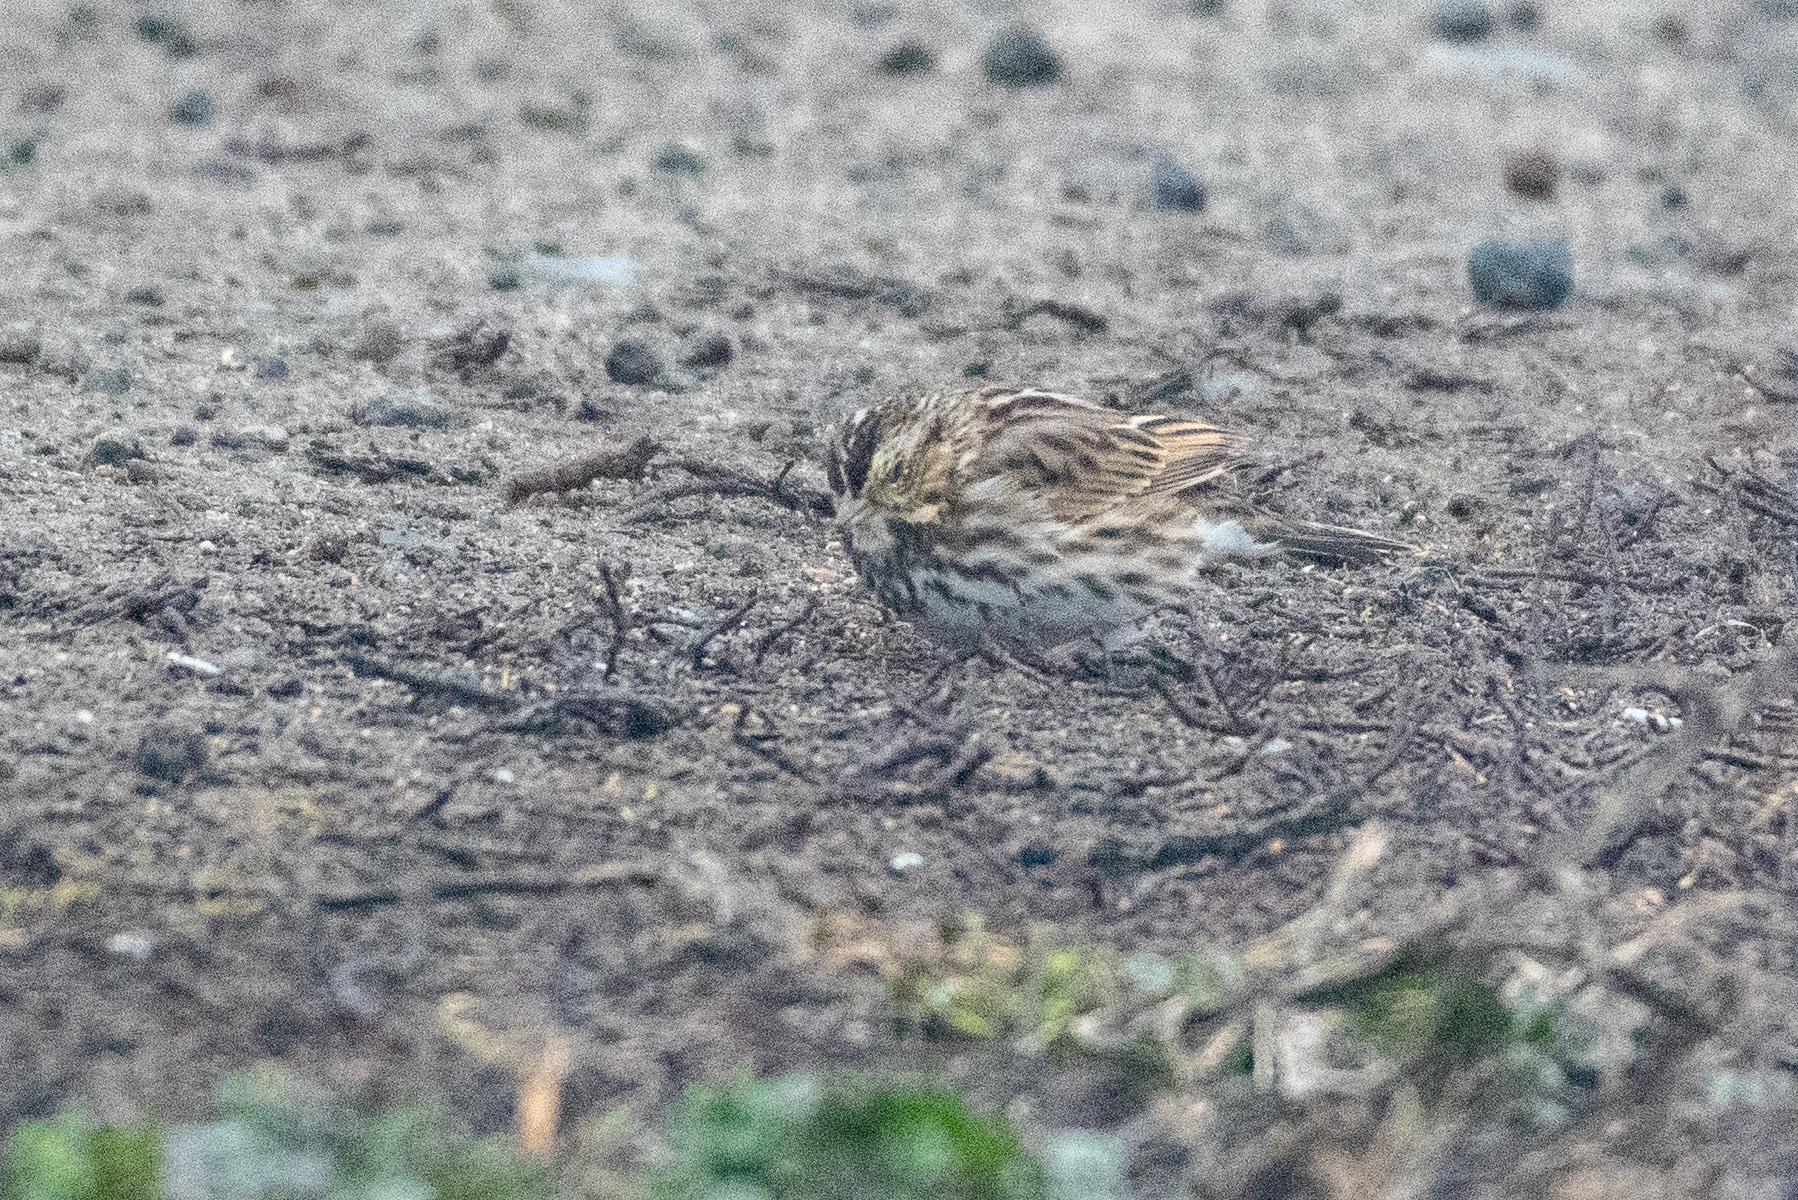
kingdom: Animalia
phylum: Chordata
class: Aves
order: Passeriformes
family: Passerellidae
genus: Passerculus
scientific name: Passerculus sandwichensis
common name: Savannah sparrow
